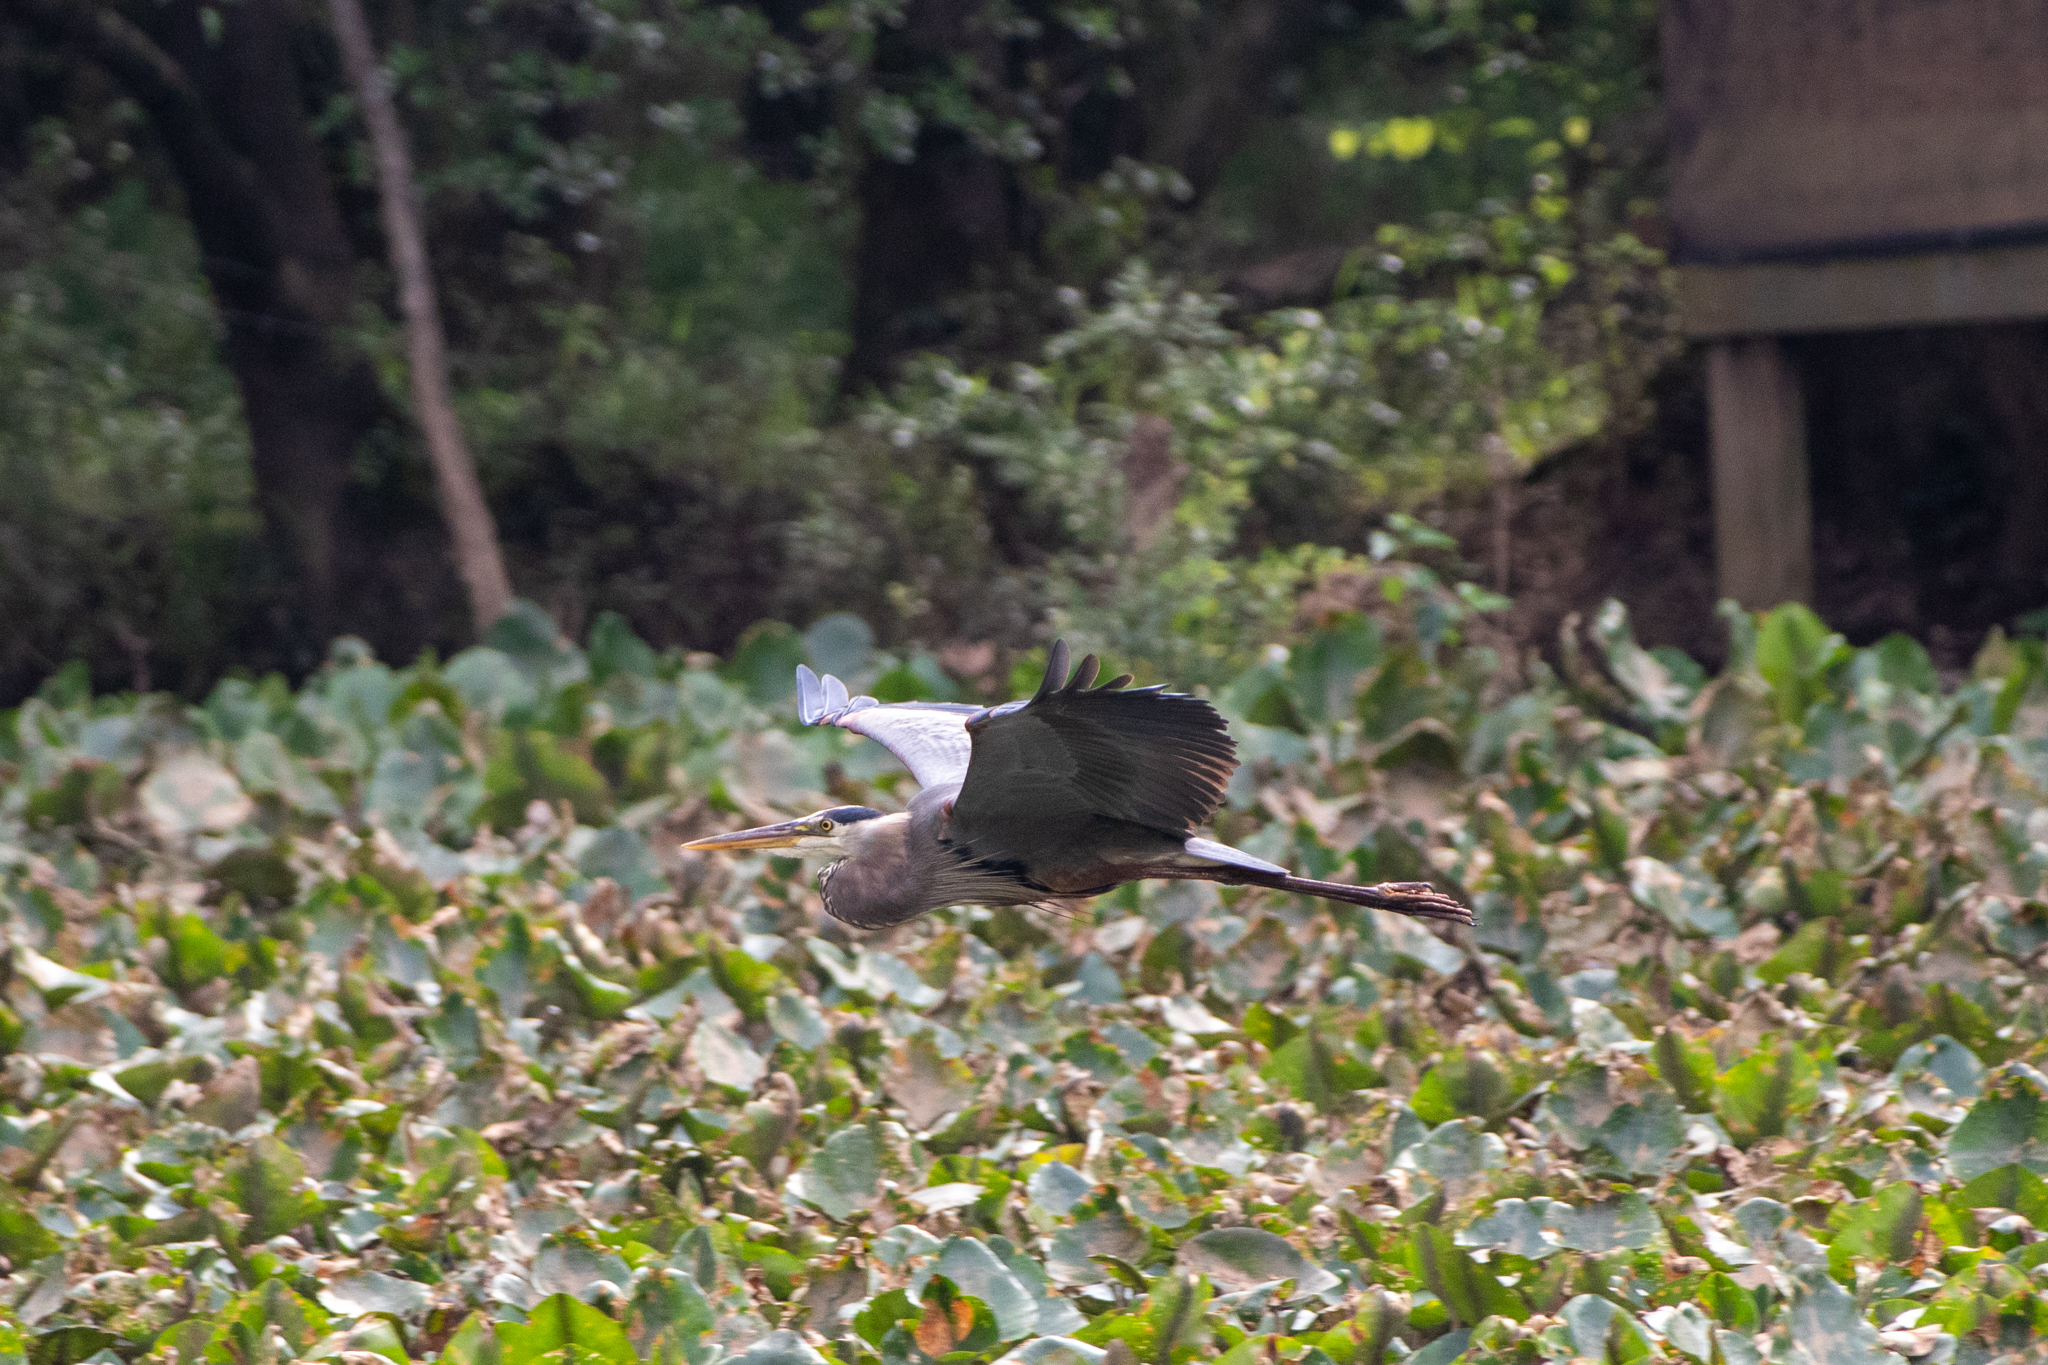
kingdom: Animalia
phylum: Chordata
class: Aves
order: Pelecaniformes
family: Ardeidae
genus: Ardea
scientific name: Ardea herodias
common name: Great blue heron
